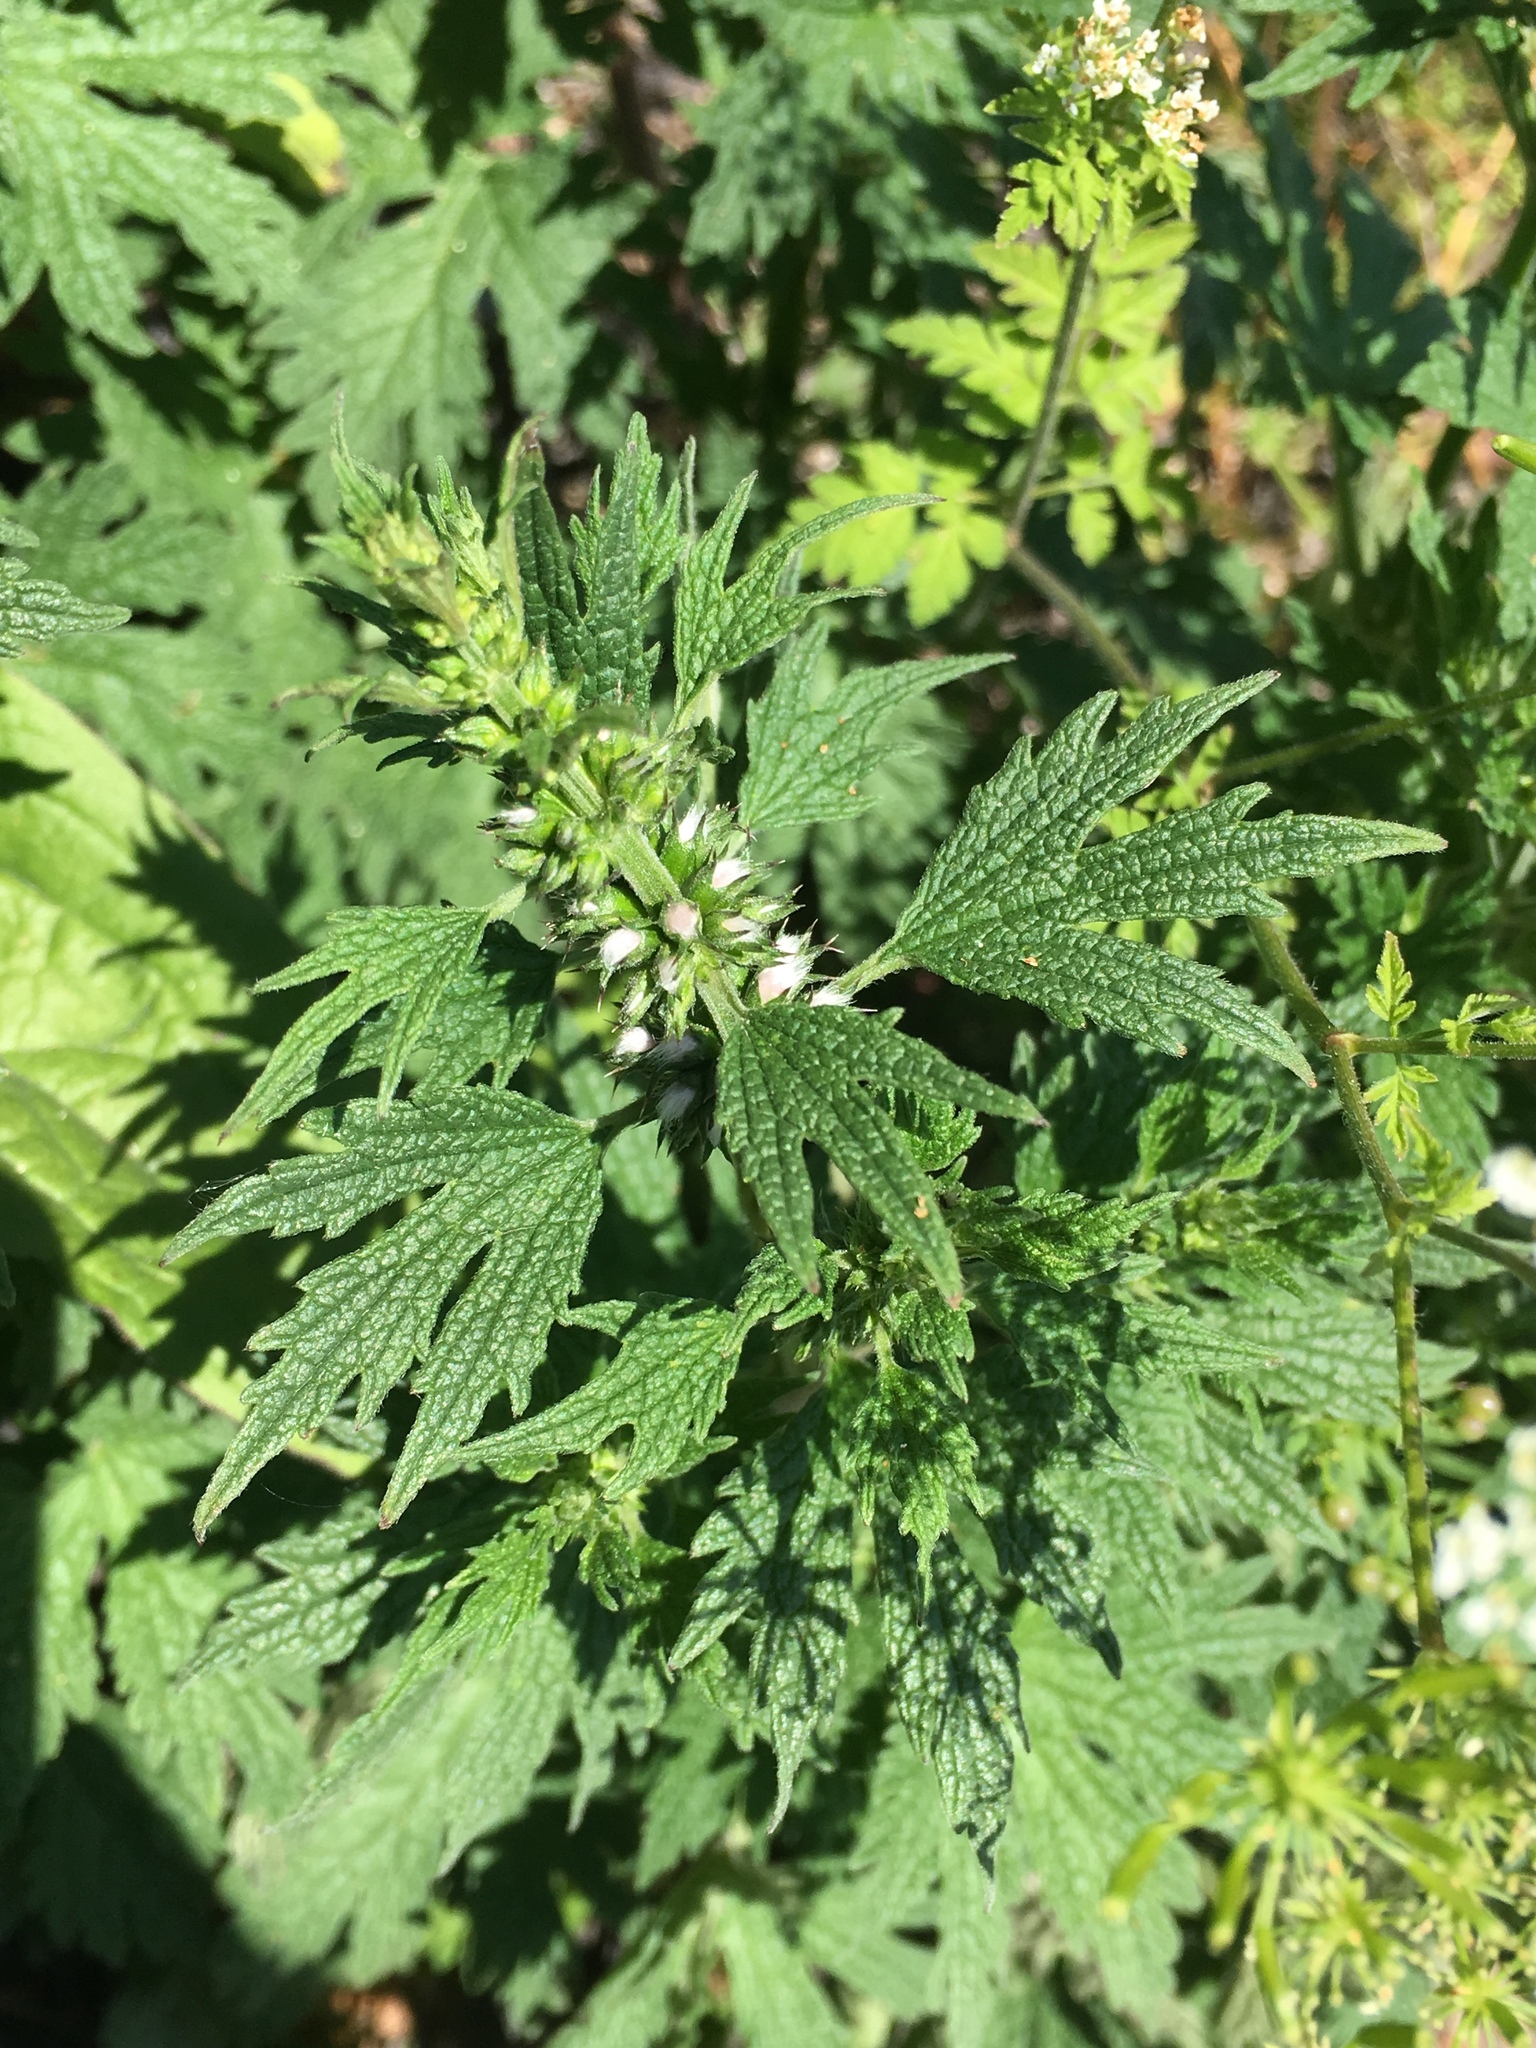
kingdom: Plantae
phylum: Tracheophyta
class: Magnoliopsida
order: Lamiales
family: Lamiaceae
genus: Leonurus
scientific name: Leonurus cardiaca
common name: Motherwort
